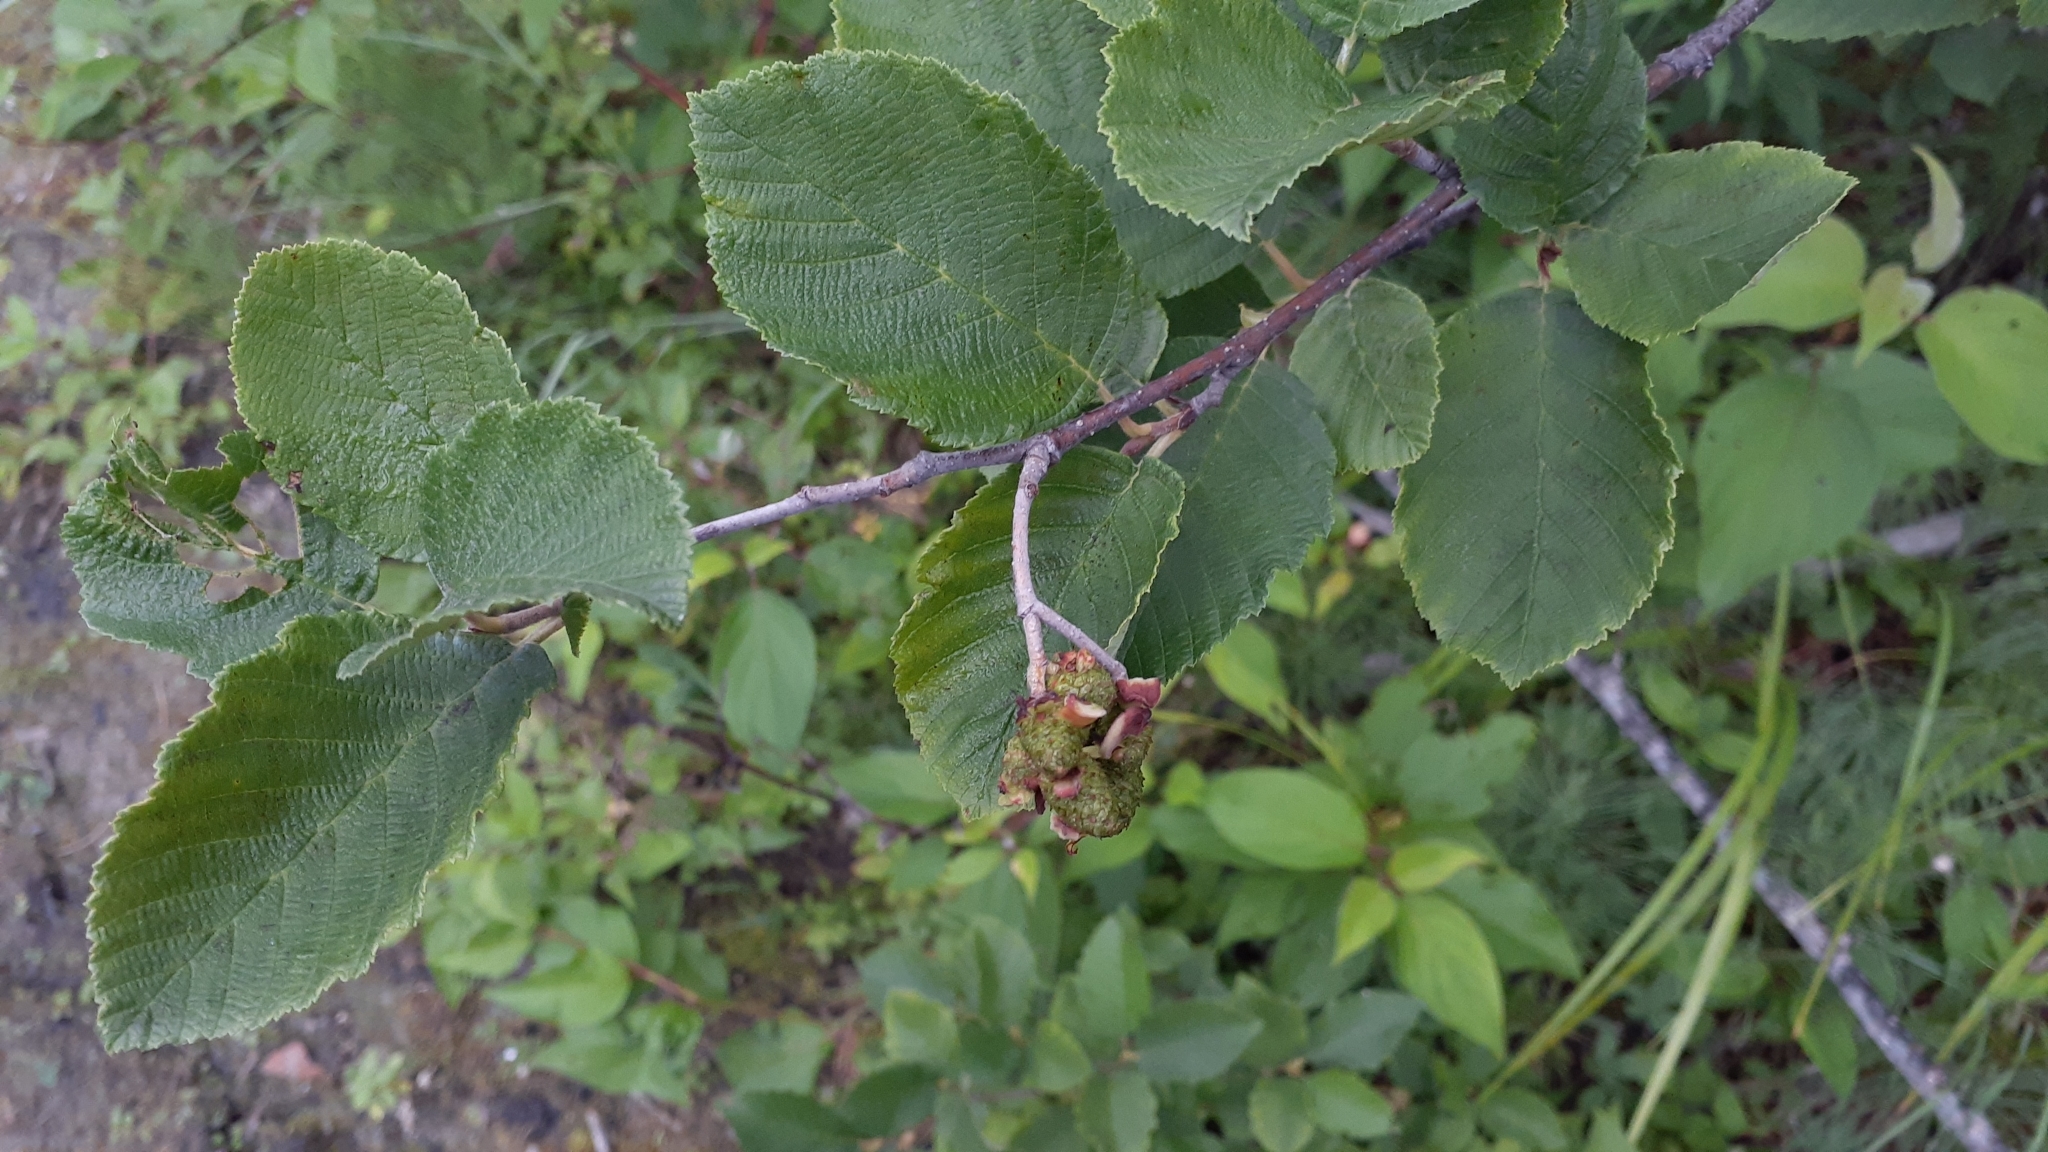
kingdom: Plantae
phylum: Tracheophyta
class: Magnoliopsida
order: Fagales
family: Betulaceae
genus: Alnus
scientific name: Alnus incana
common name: Grey alder
